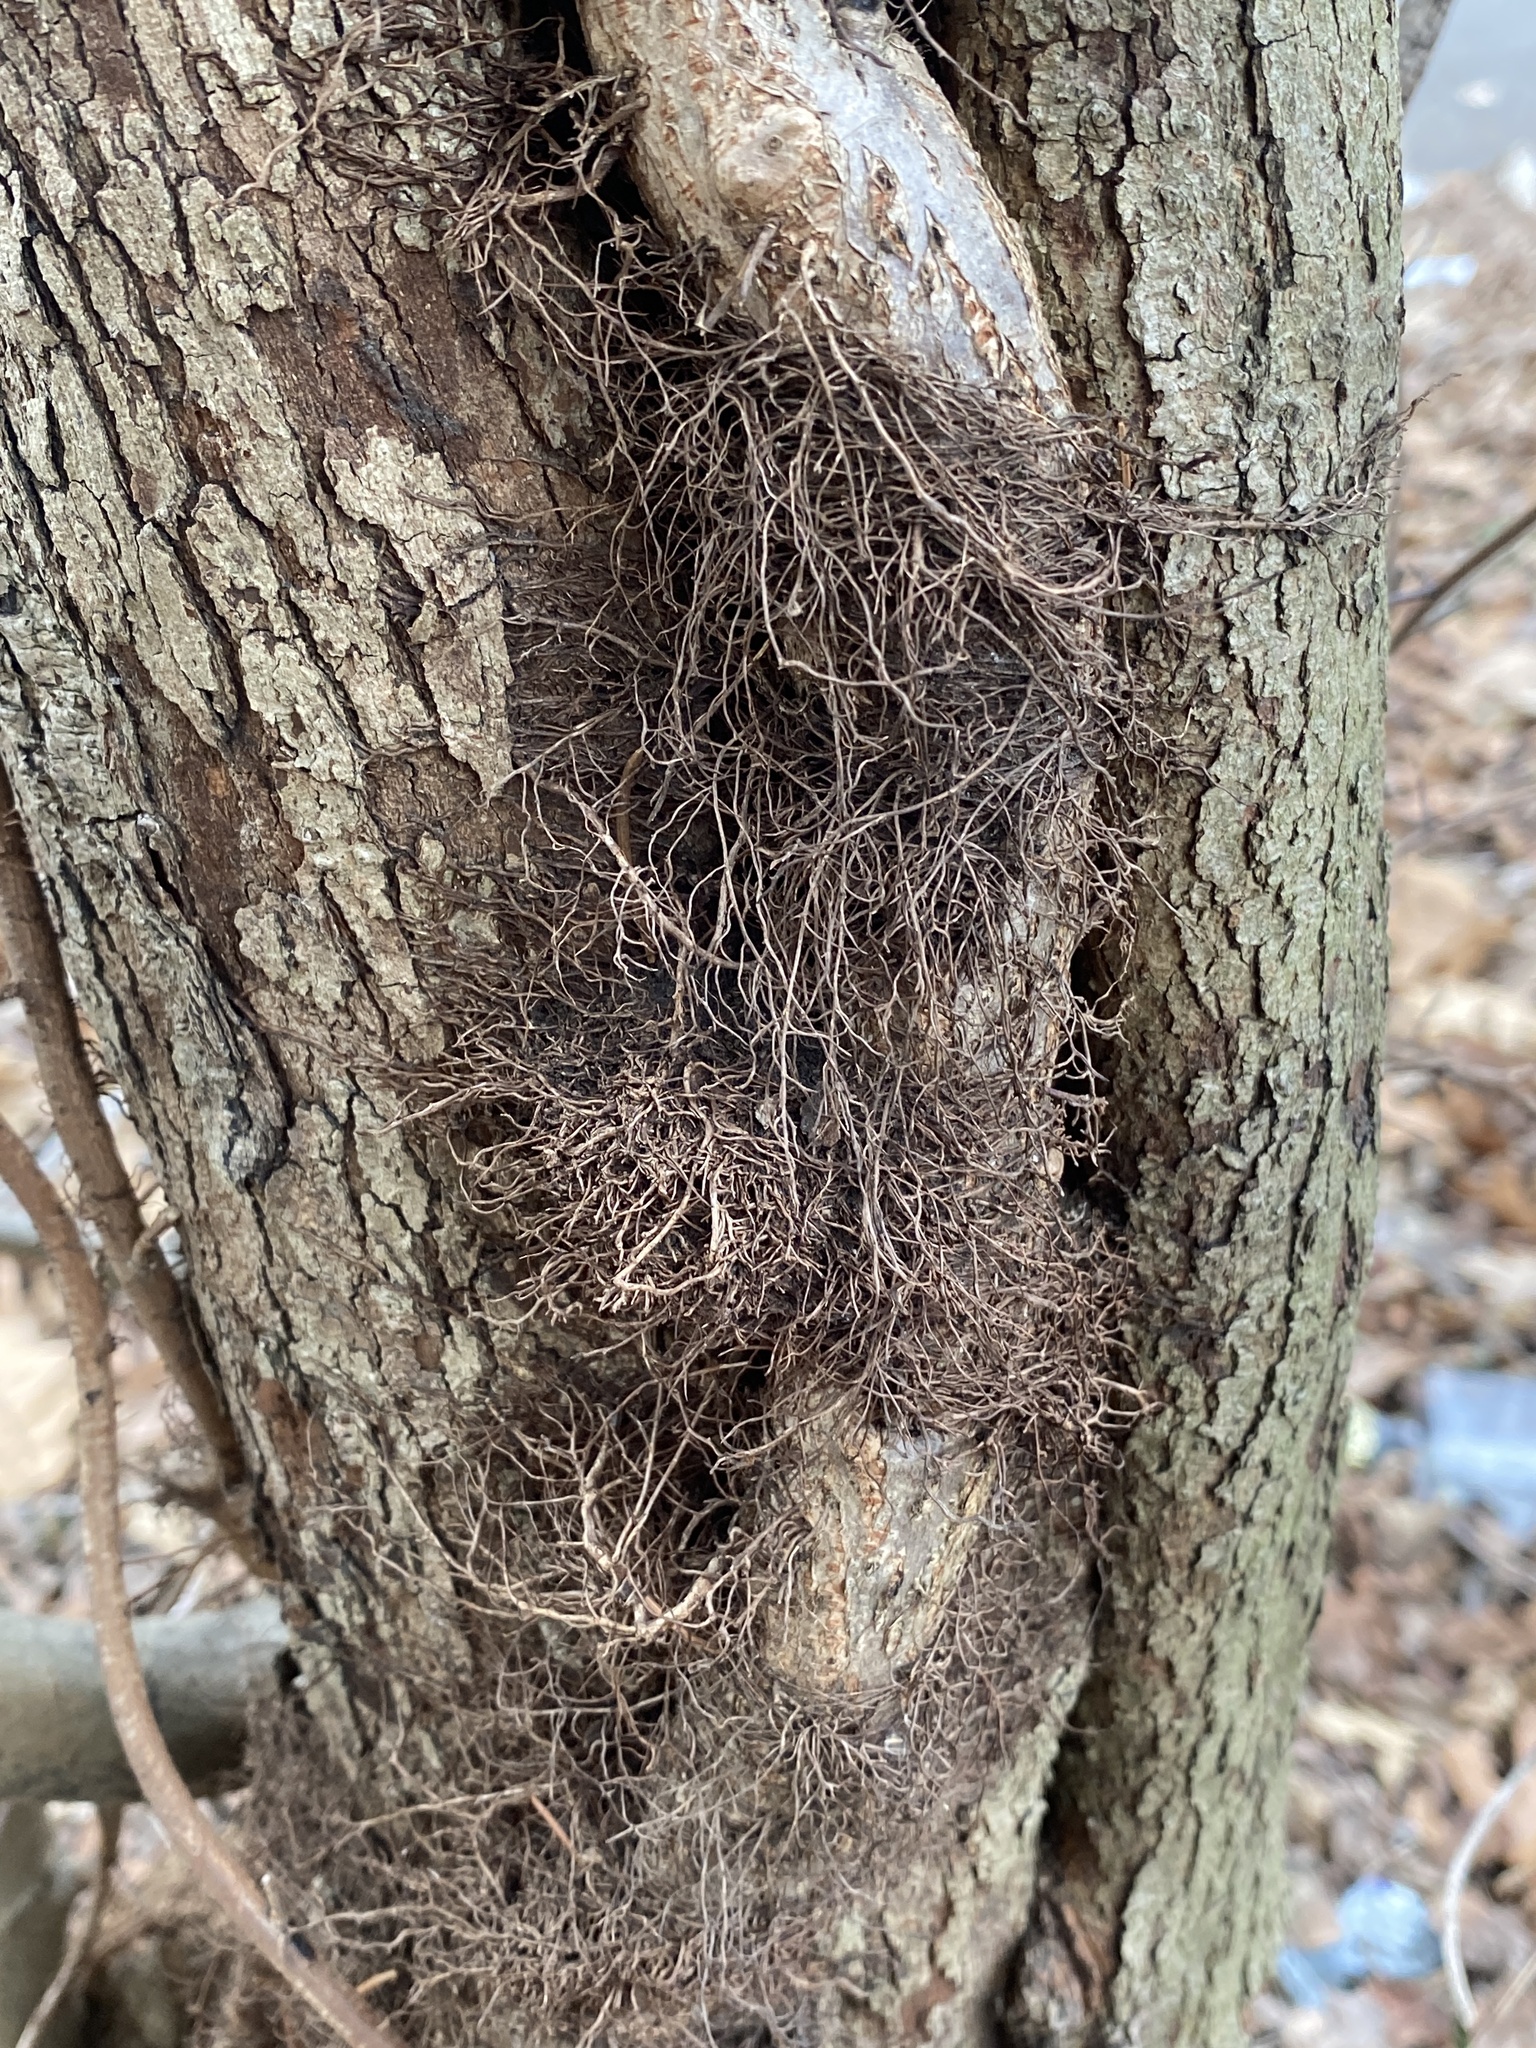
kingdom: Plantae
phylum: Tracheophyta
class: Magnoliopsida
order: Sapindales
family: Anacardiaceae
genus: Toxicodendron
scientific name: Toxicodendron radicans
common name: Poison ivy
